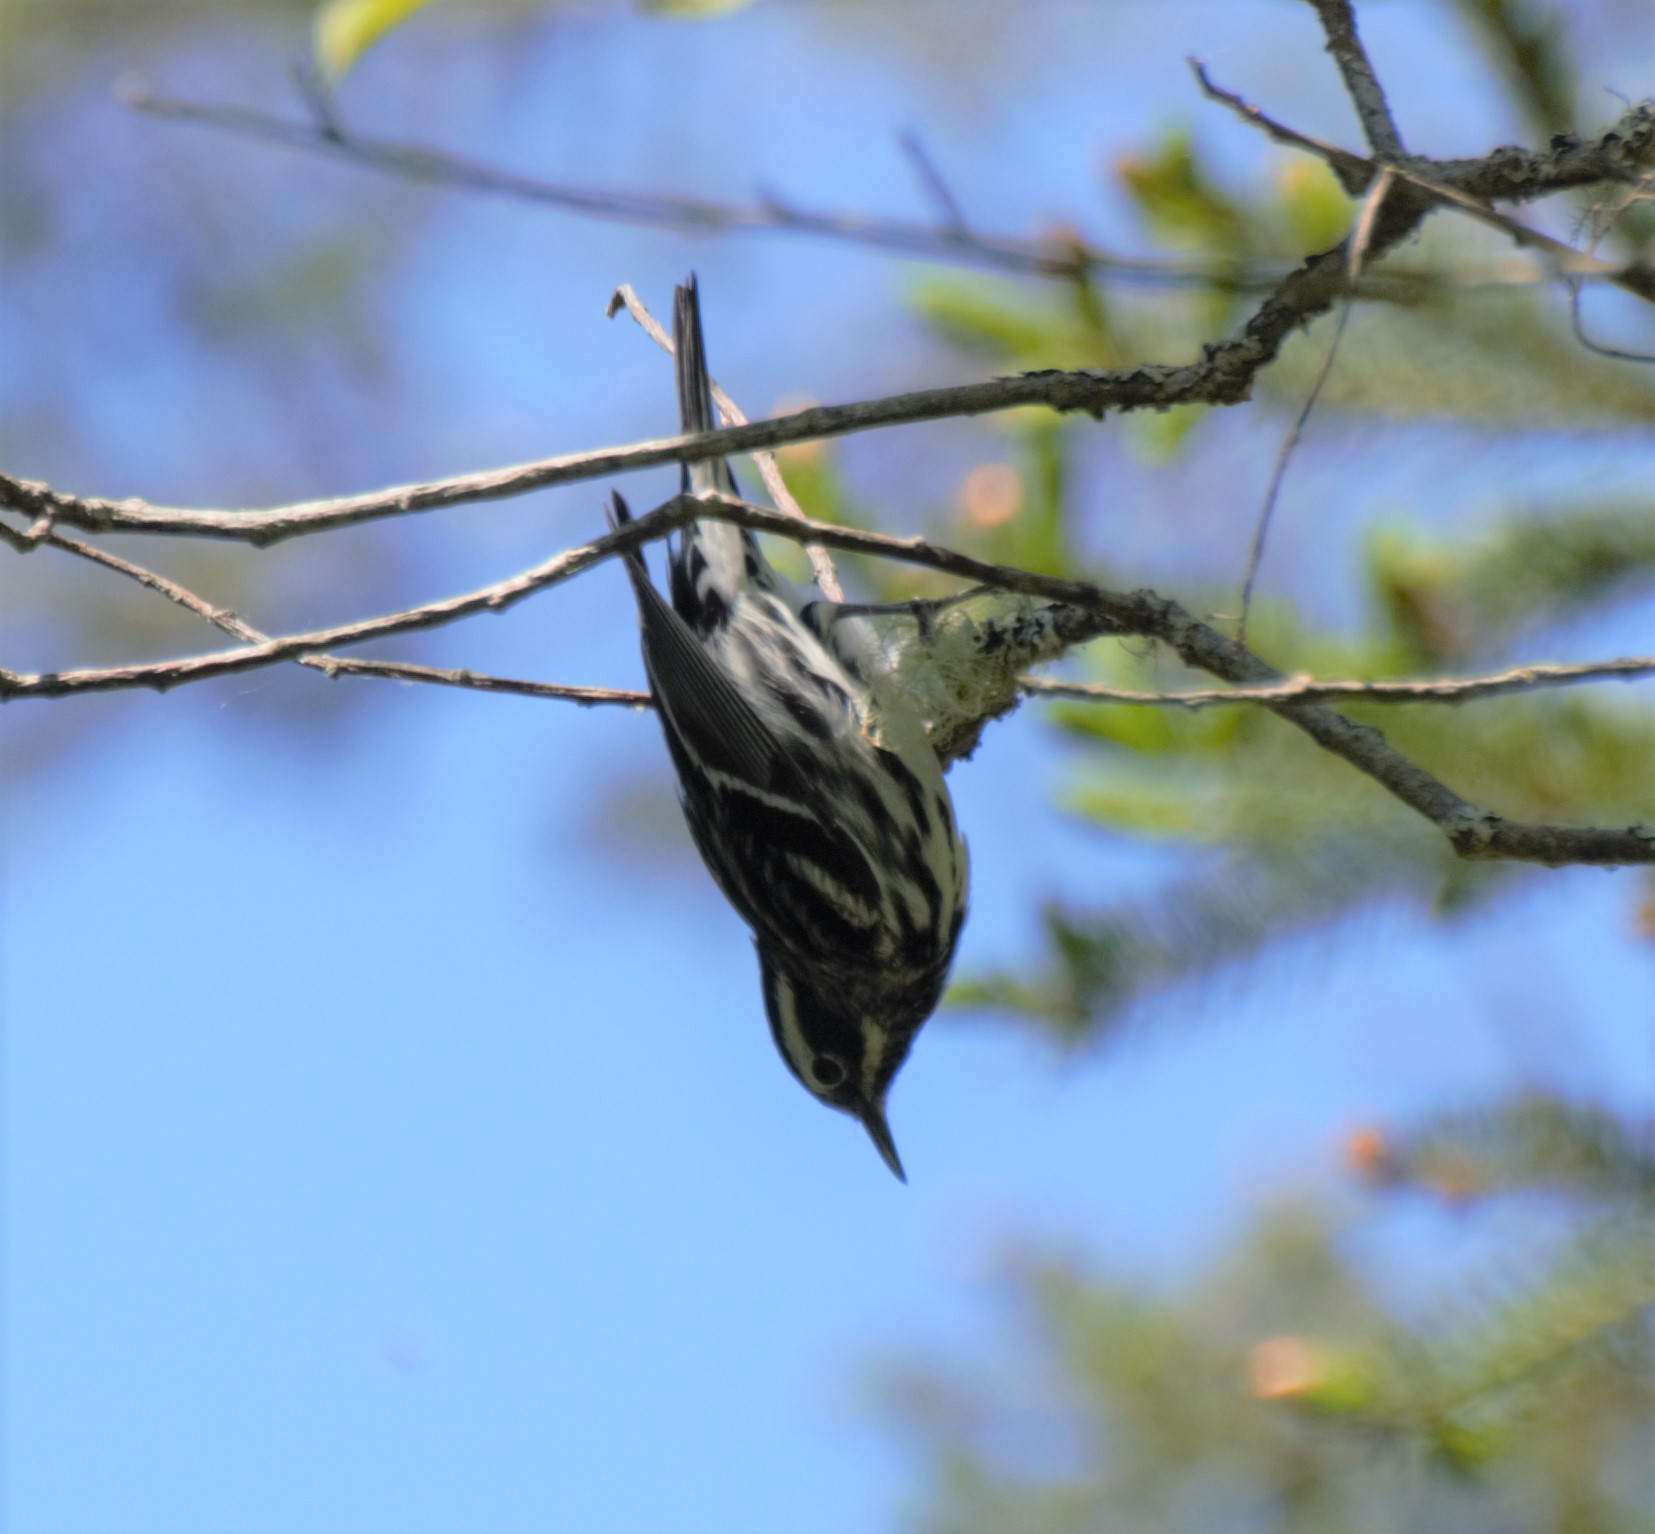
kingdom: Animalia
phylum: Chordata
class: Aves
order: Passeriformes
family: Parulidae
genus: Mniotilta
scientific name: Mniotilta varia
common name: Black-and-white warbler
